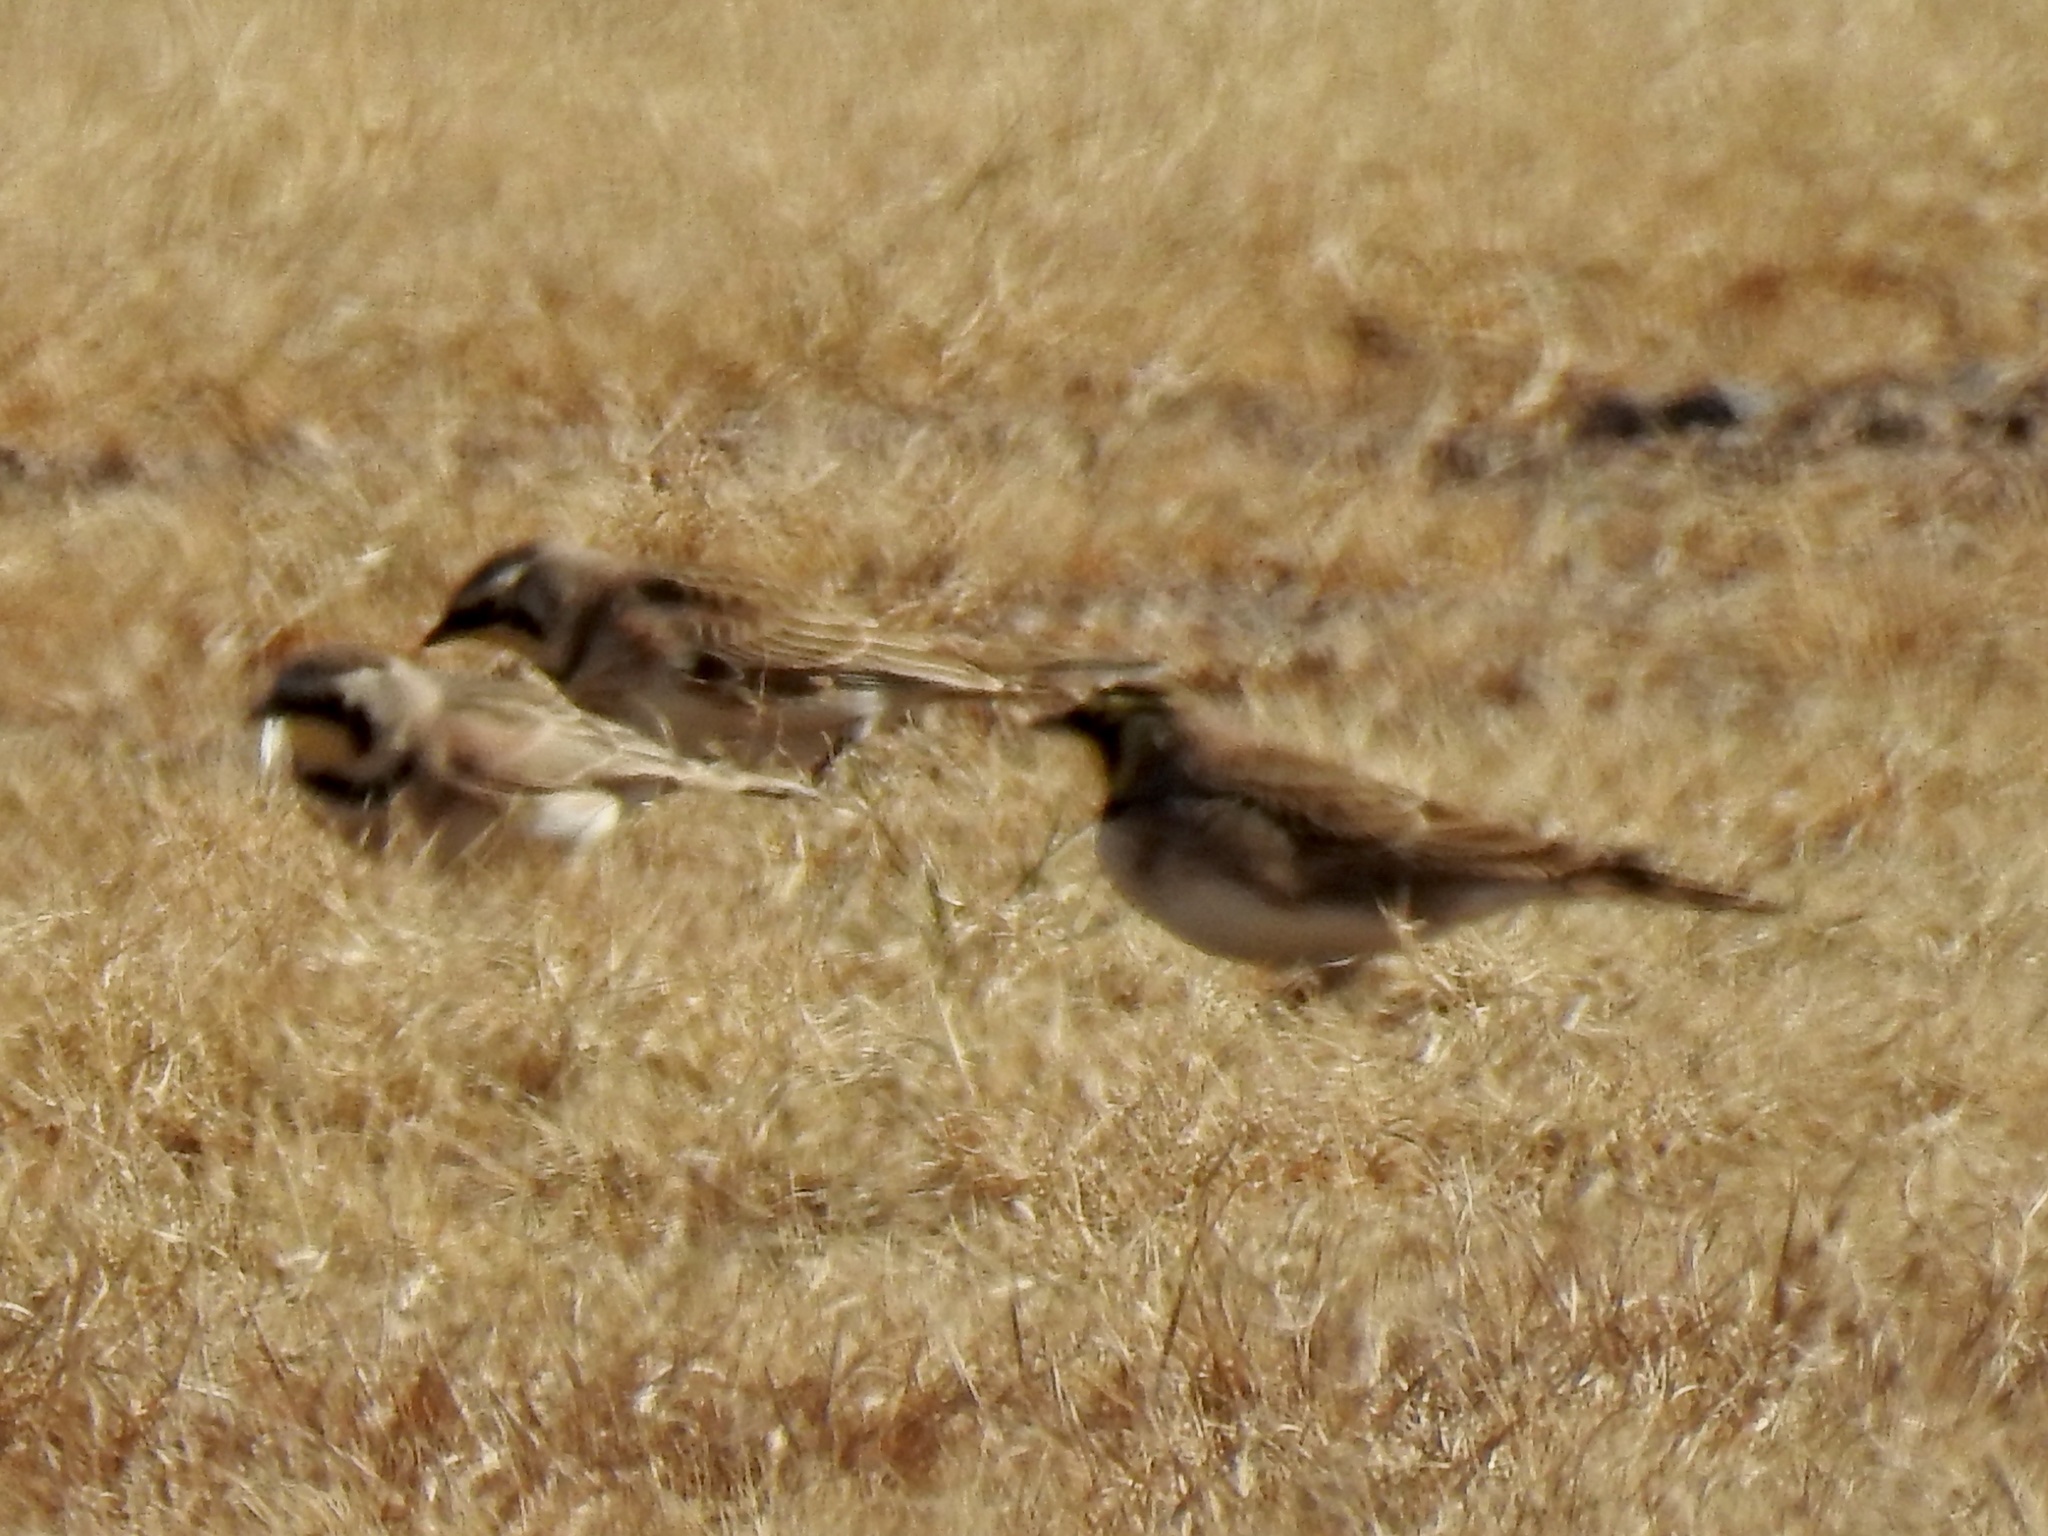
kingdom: Animalia
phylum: Chordata
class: Aves
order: Passeriformes
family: Alaudidae
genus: Eremophila
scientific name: Eremophila alpestris
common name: Horned lark
